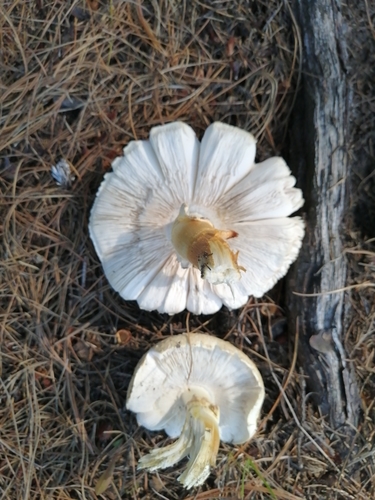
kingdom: Fungi
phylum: Basidiomycota
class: Agaricomycetes
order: Gloeophyllales
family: Gloeophyllaceae
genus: Neolentinus
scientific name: Neolentinus lepideus
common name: Scaly sawgill
